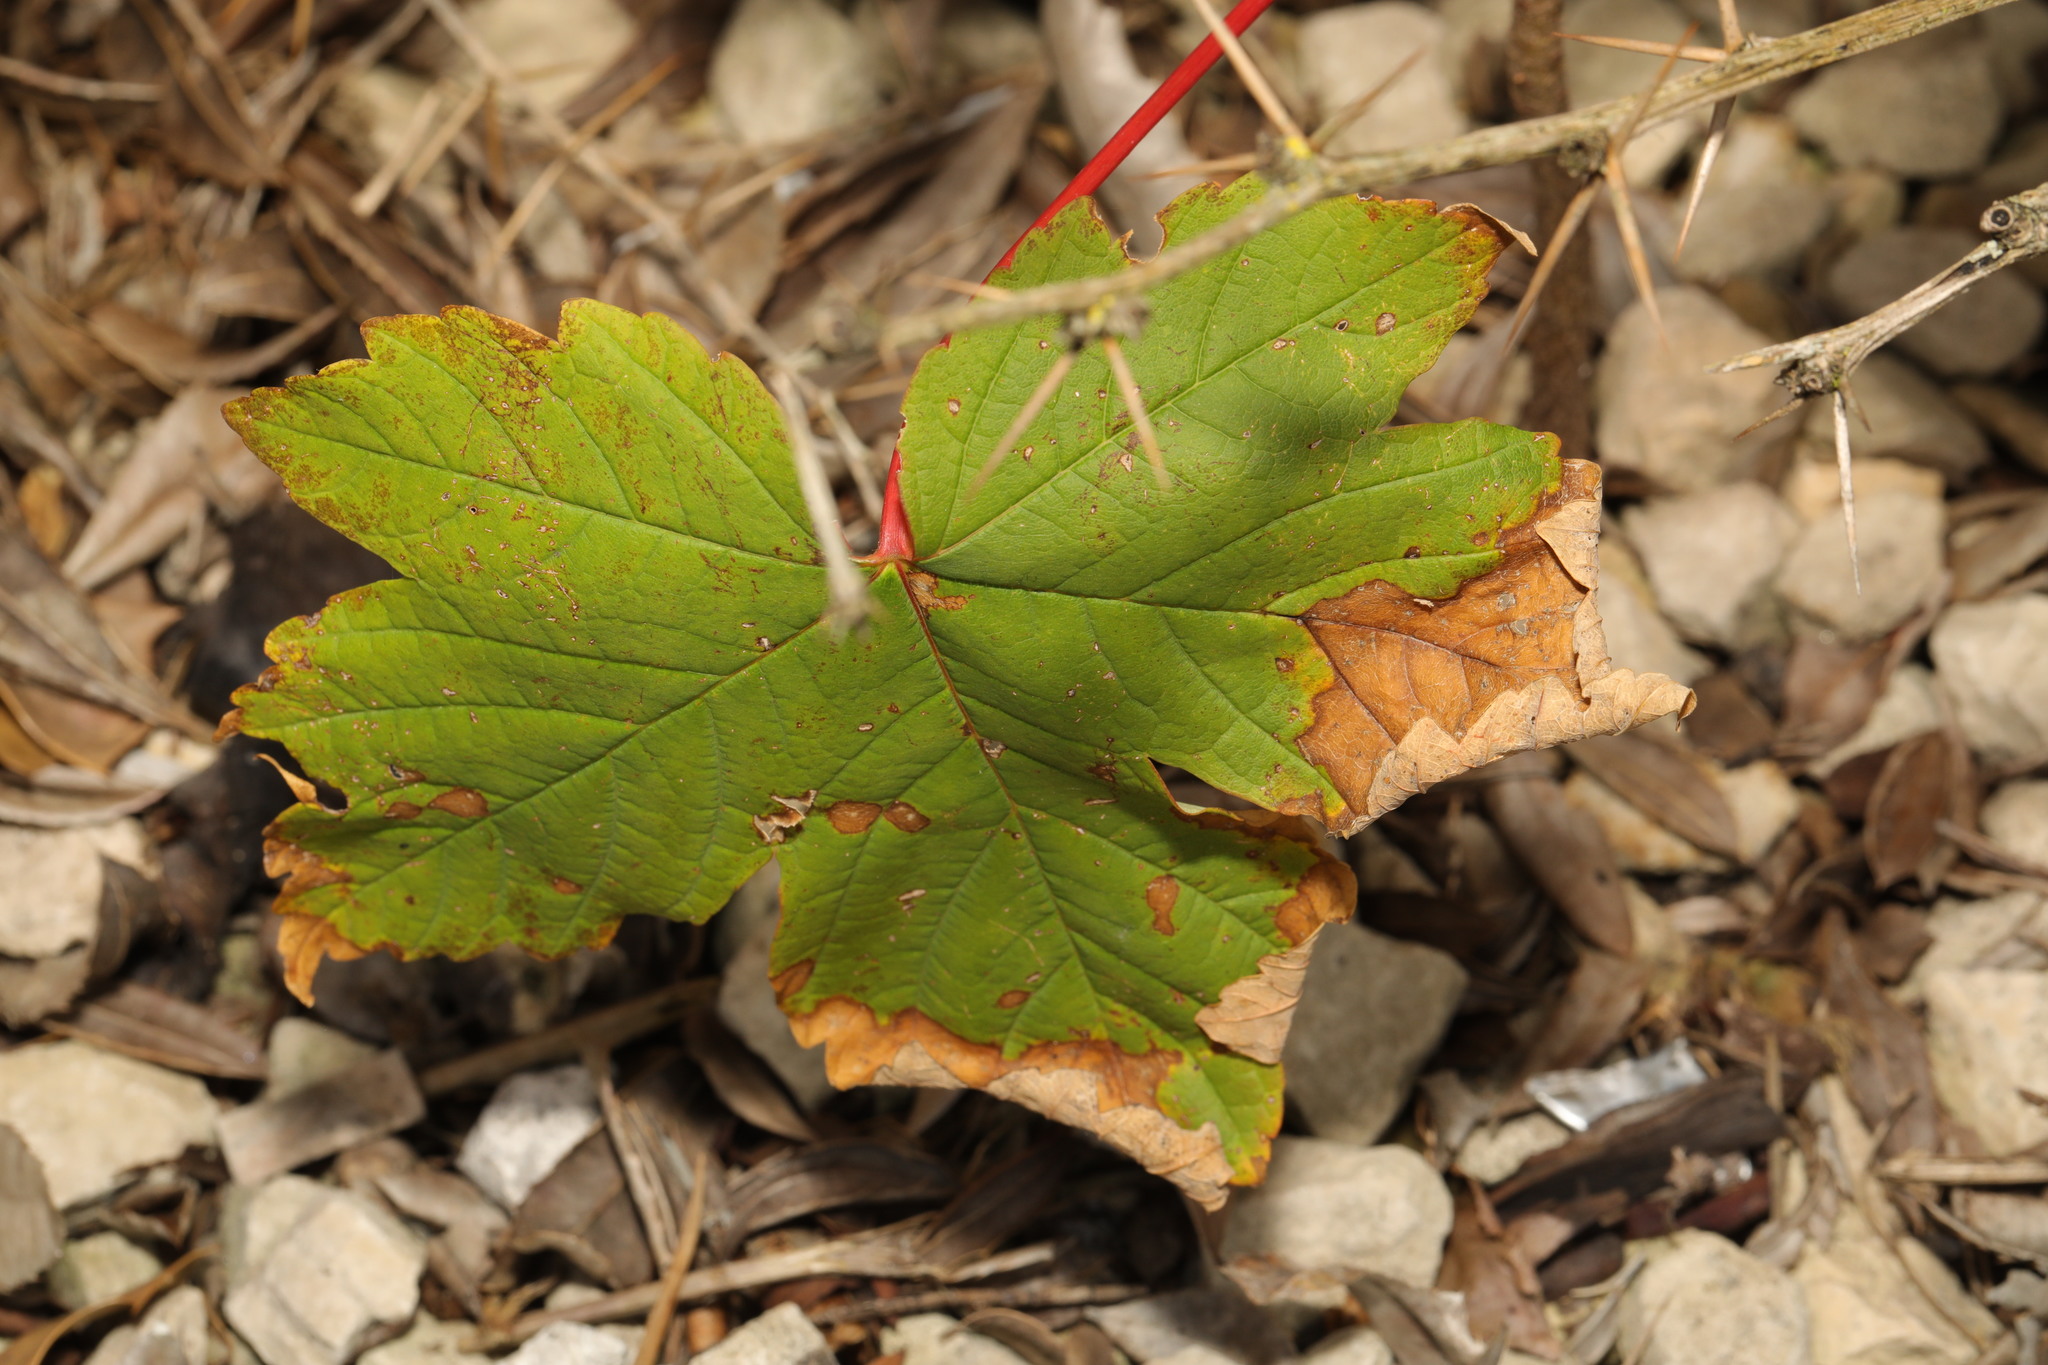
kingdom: Plantae
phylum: Tracheophyta
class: Magnoliopsida
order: Sapindales
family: Sapindaceae
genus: Acer
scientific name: Acer pseudoplatanus
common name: Sycamore
